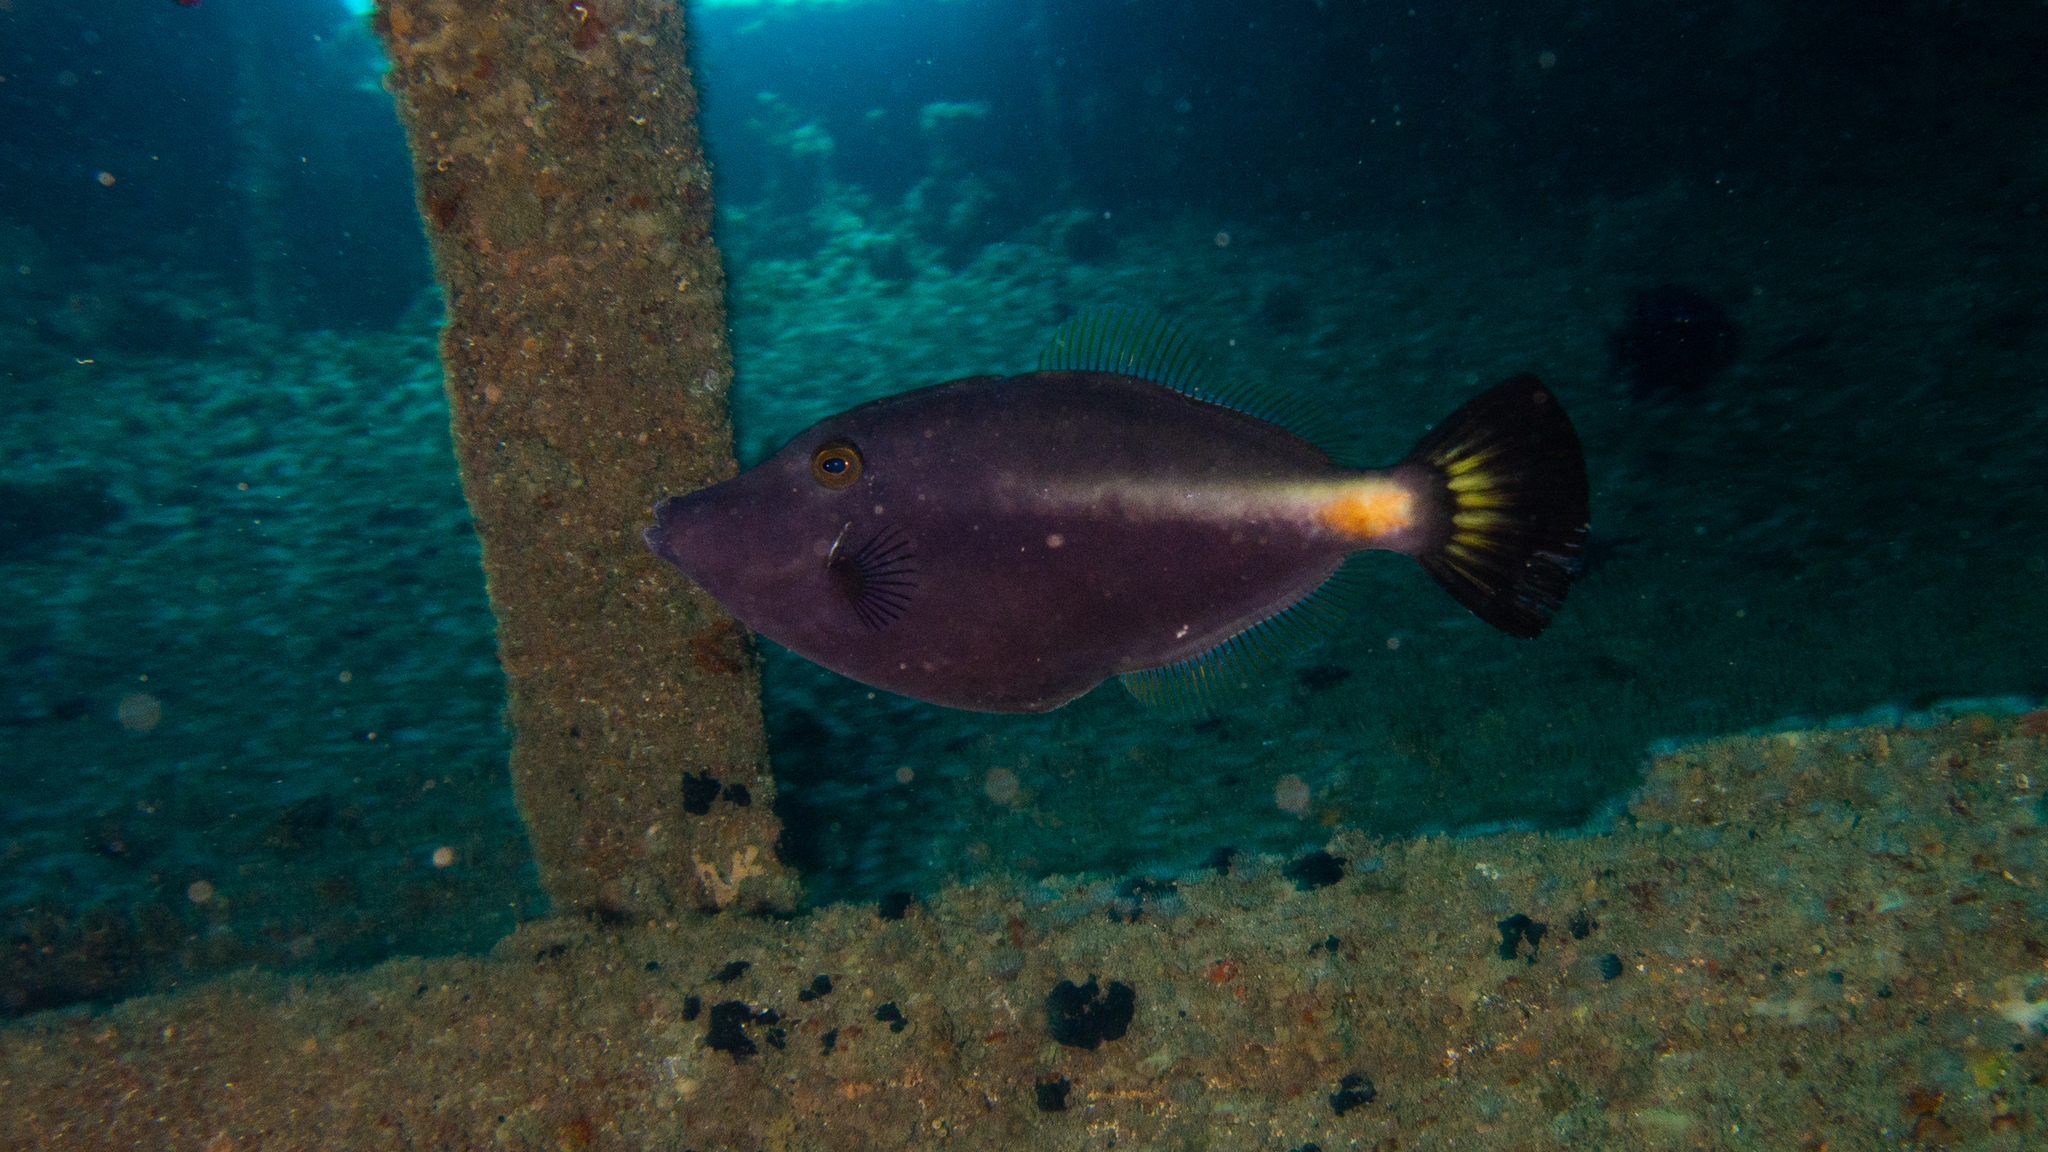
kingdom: Animalia
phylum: Chordata
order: Tetraodontiformes
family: Monacanthidae
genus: Meuschenia
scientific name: Meuschenia flavolineata
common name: Yellowstriped leatherjacket
